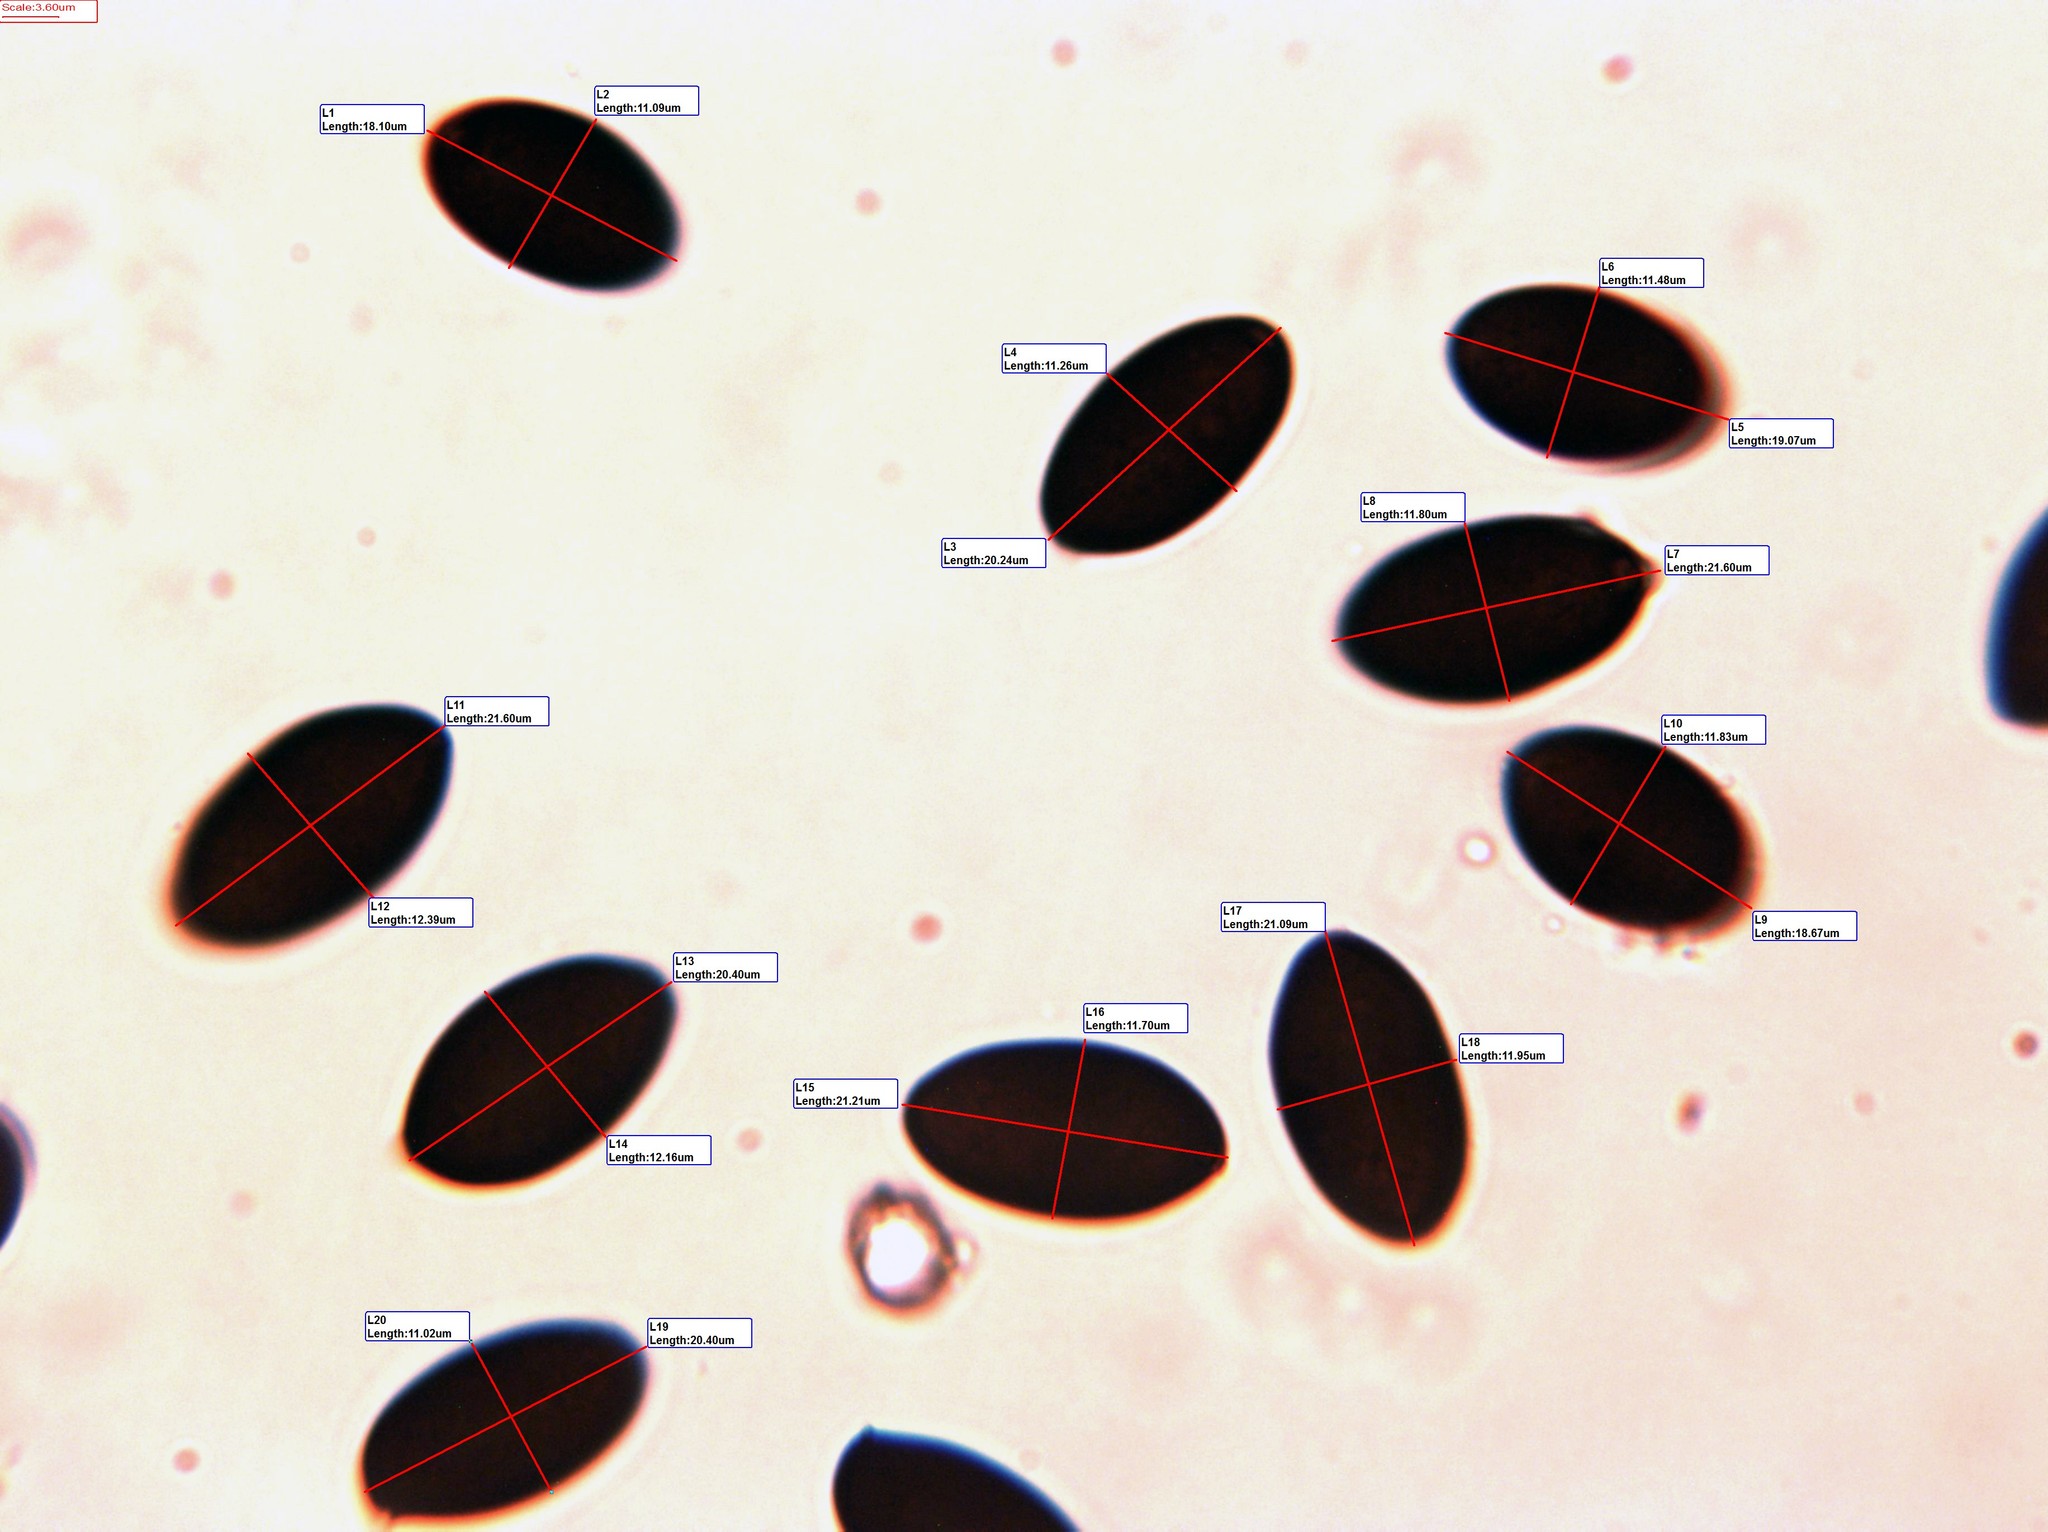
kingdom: Fungi
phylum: Basidiomycota
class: Agaricomycetes
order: Agaricales
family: Bolbitiaceae
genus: Panaeolus
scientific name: Panaeolus semiovatus
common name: Shiny mottlegill
